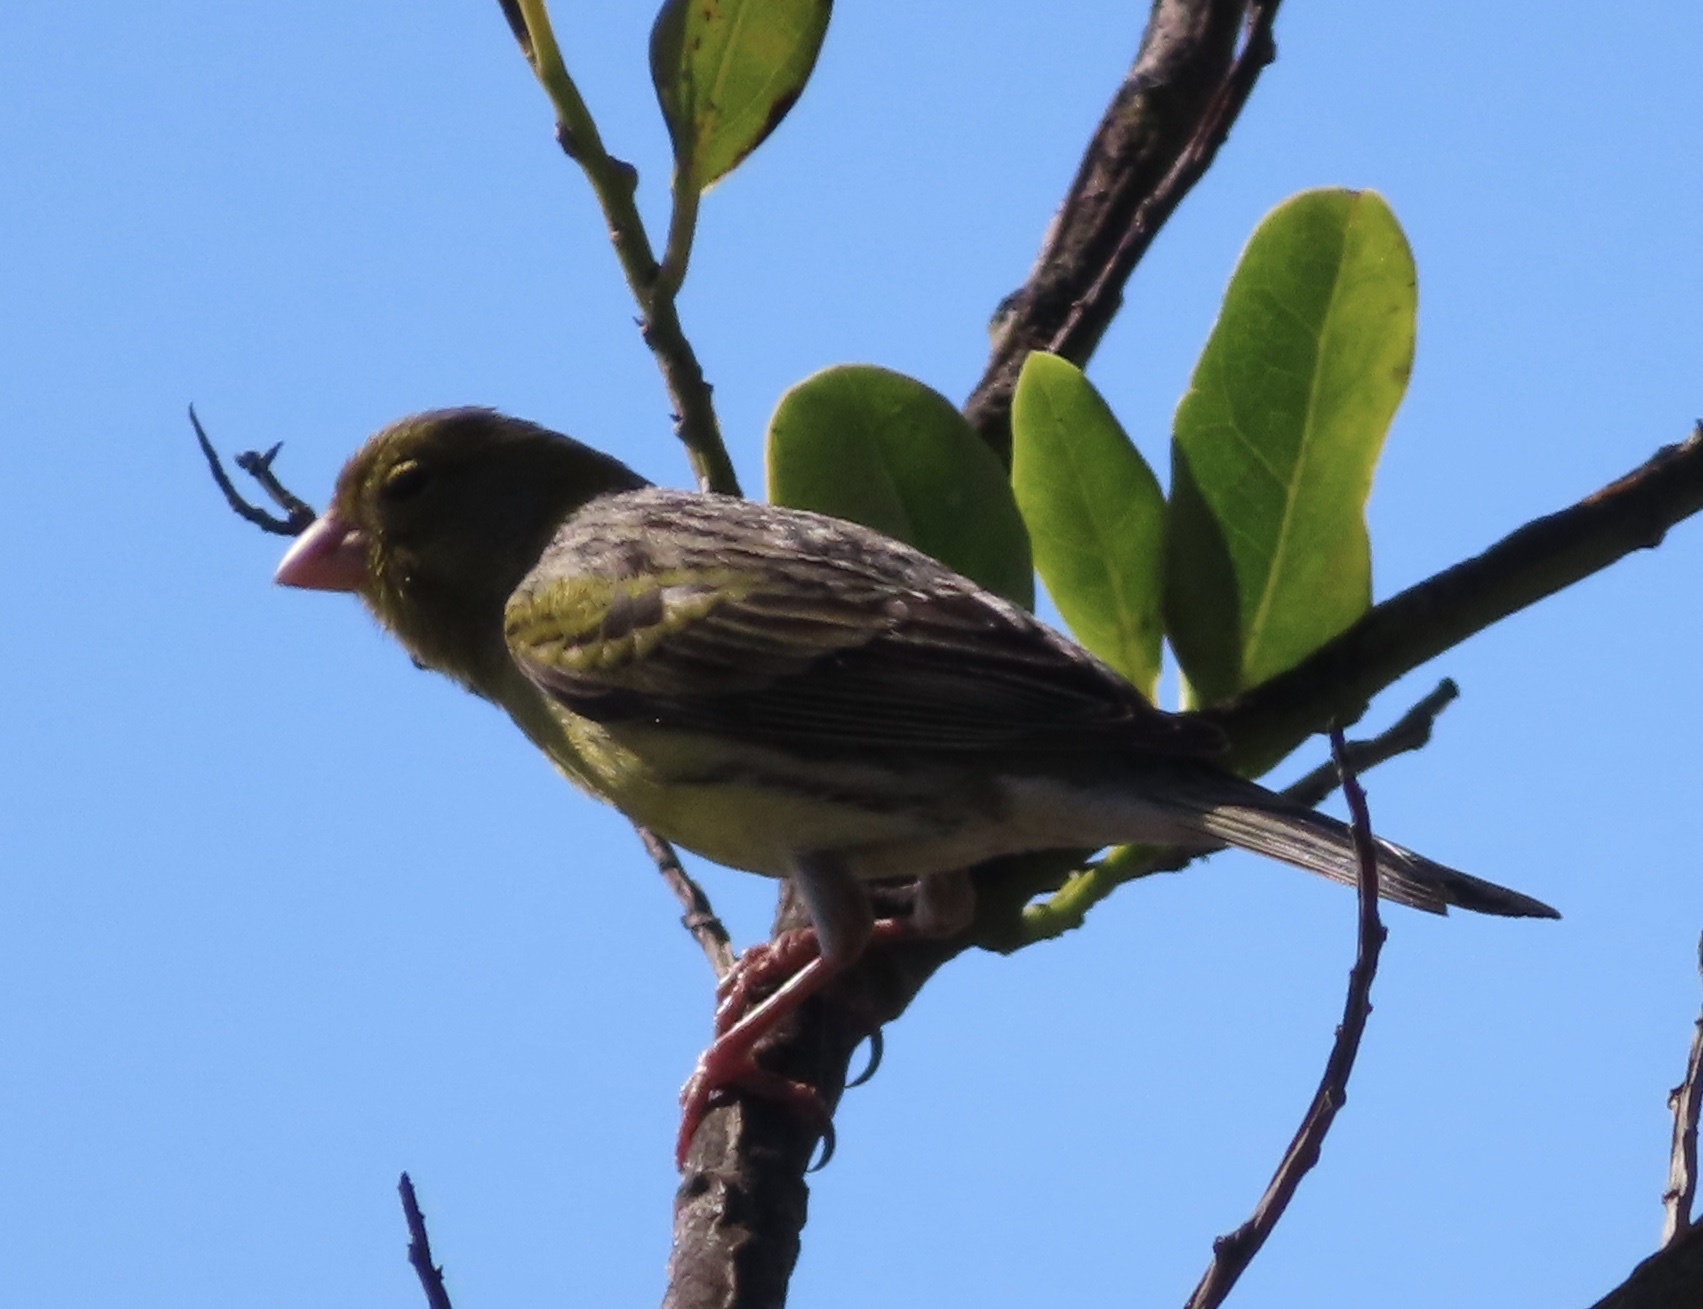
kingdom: Animalia
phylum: Chordata
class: Aves
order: Passeriformes
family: Fringillidae
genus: Serinus
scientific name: Serinus canaria
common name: Atlantic canary
